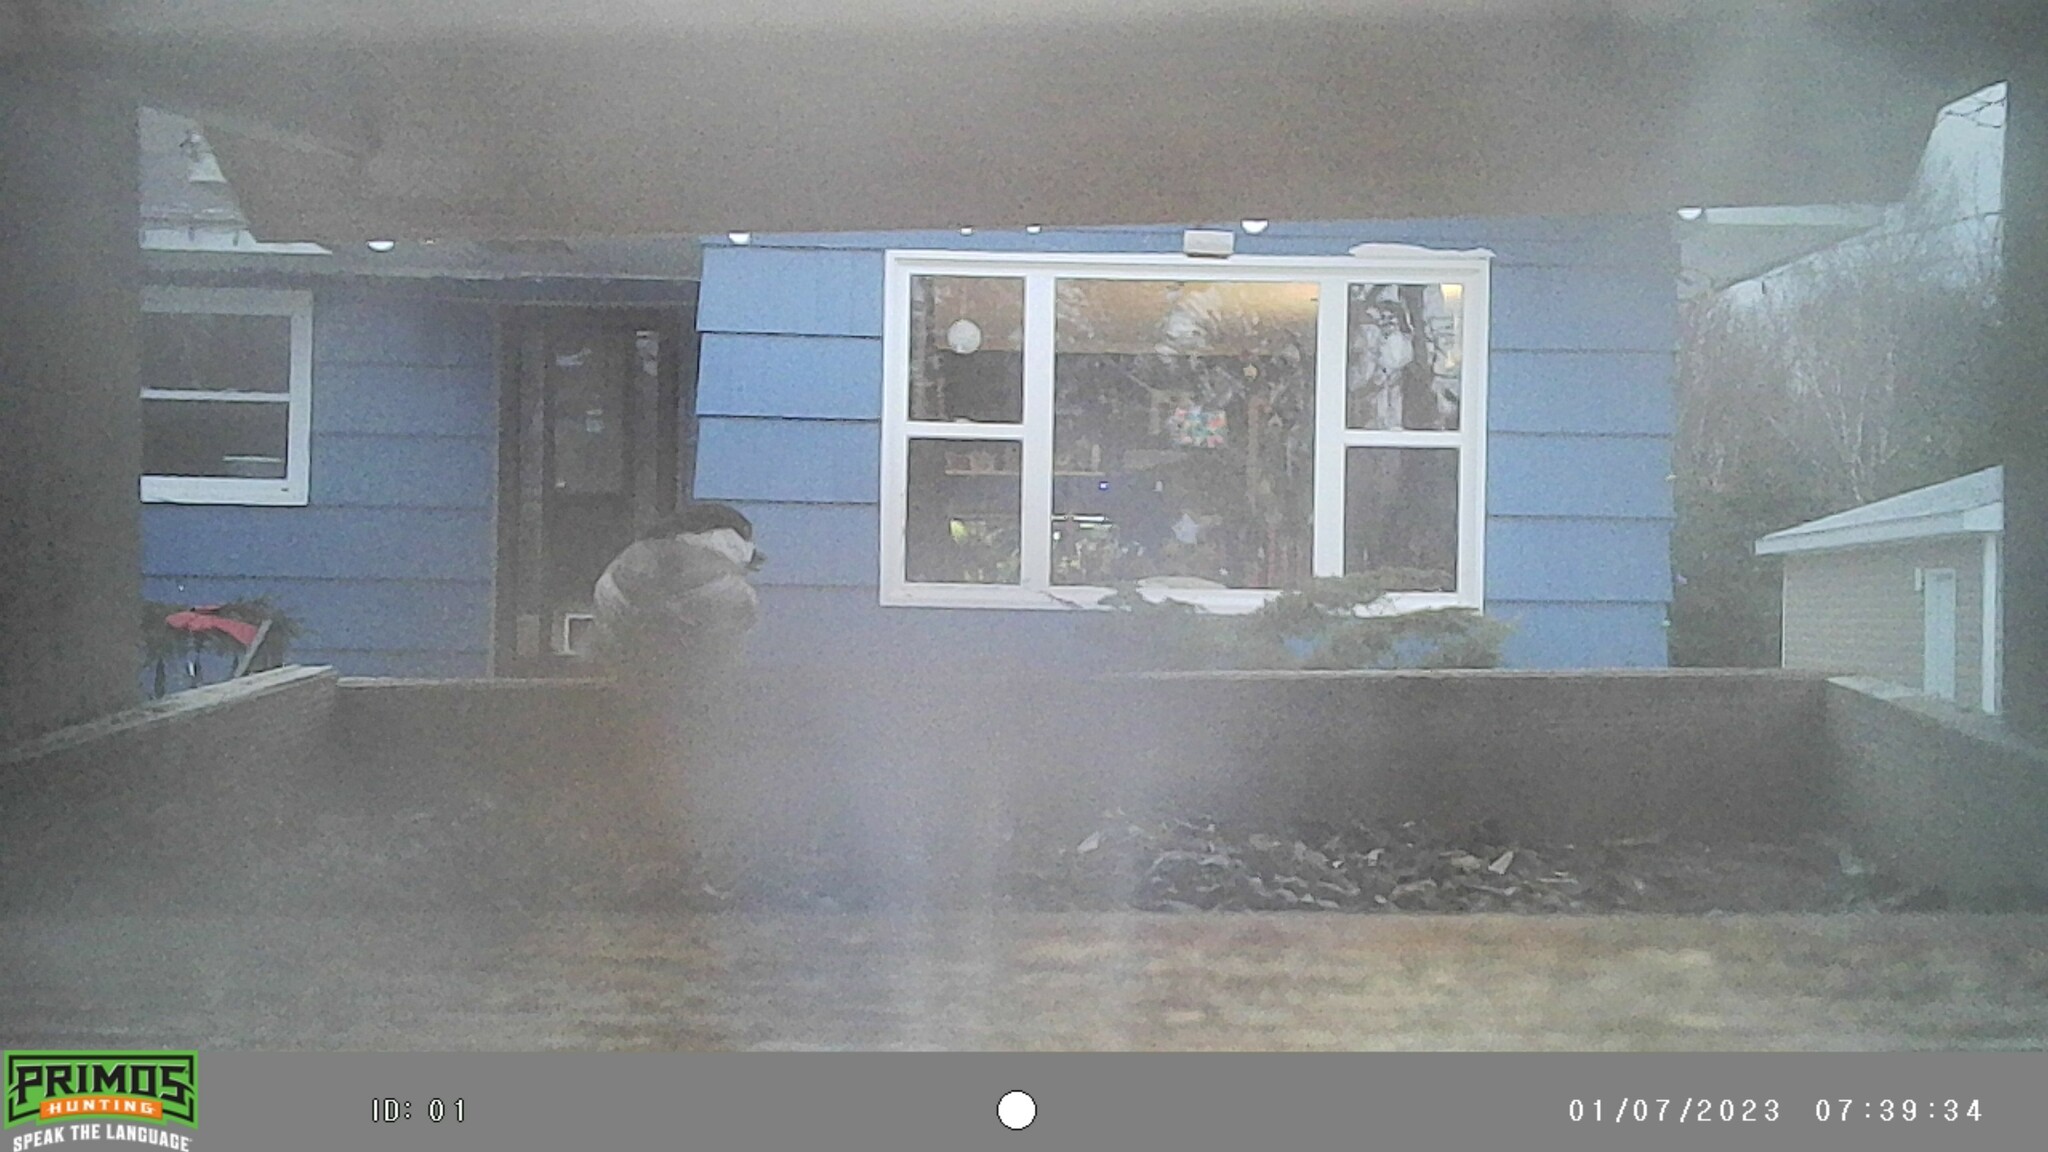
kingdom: Animalia
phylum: Chordata
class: Aves
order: Passeriformes
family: Paridae
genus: Poecile
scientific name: Poecile atricapillus
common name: Black-capped chickadee
